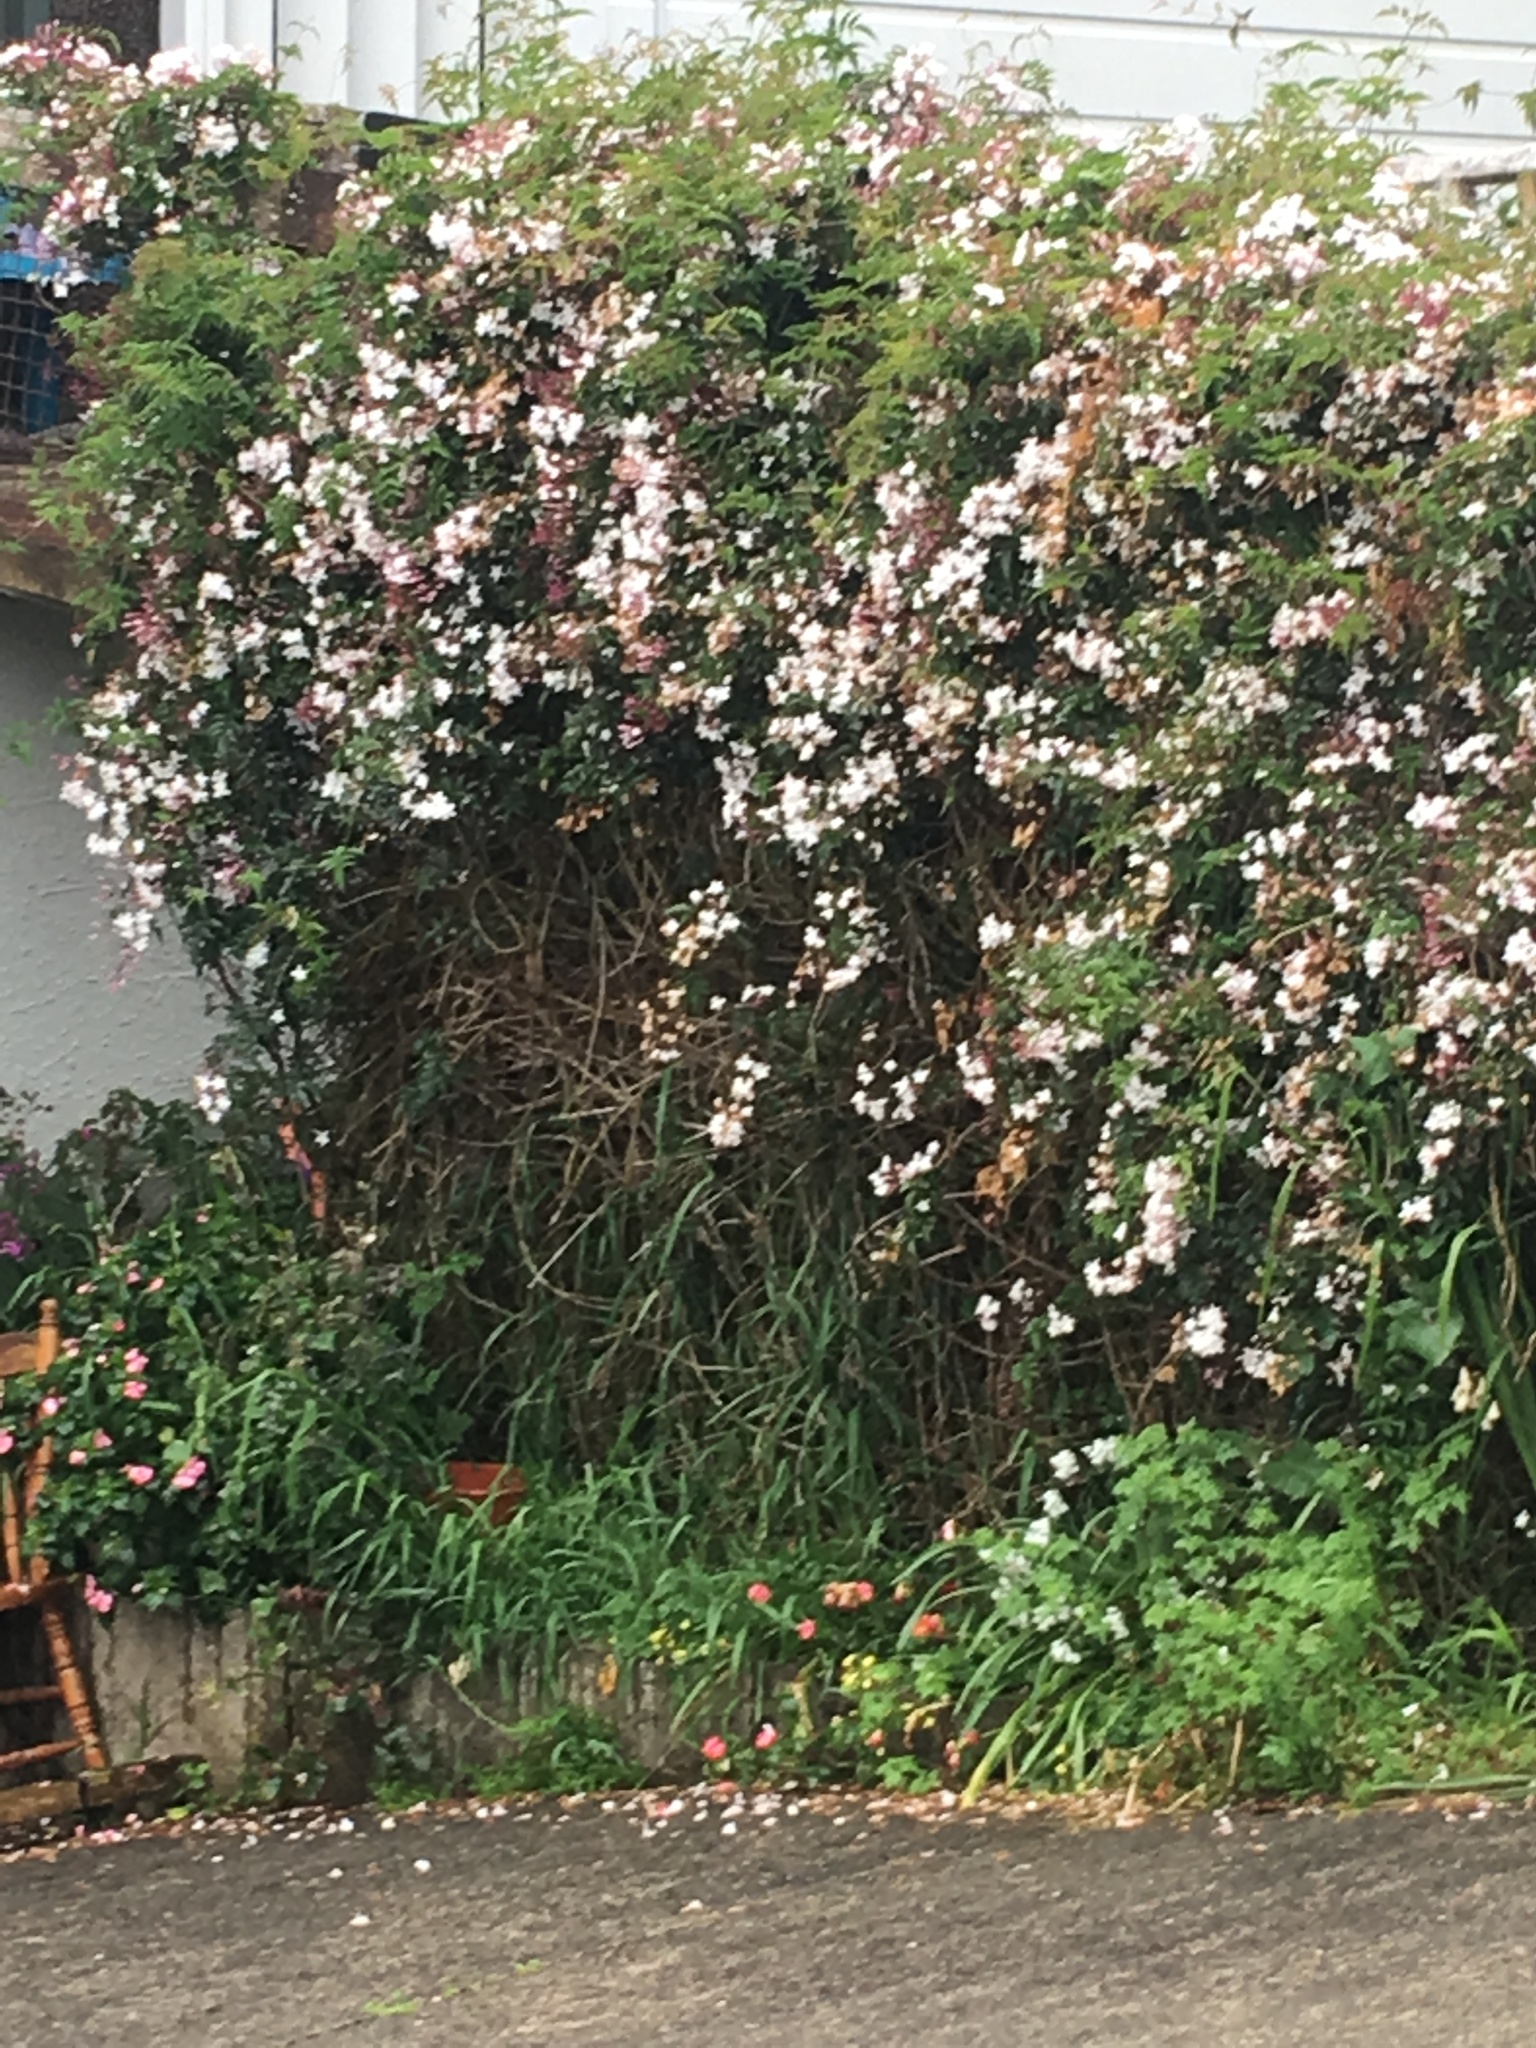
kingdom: Plantae
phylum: Tracheophyta
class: Magnoliopsida
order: Lamiales
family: Oleaceae
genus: Jasminum
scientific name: Jasminum polyanthum
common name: Pink jasmine
